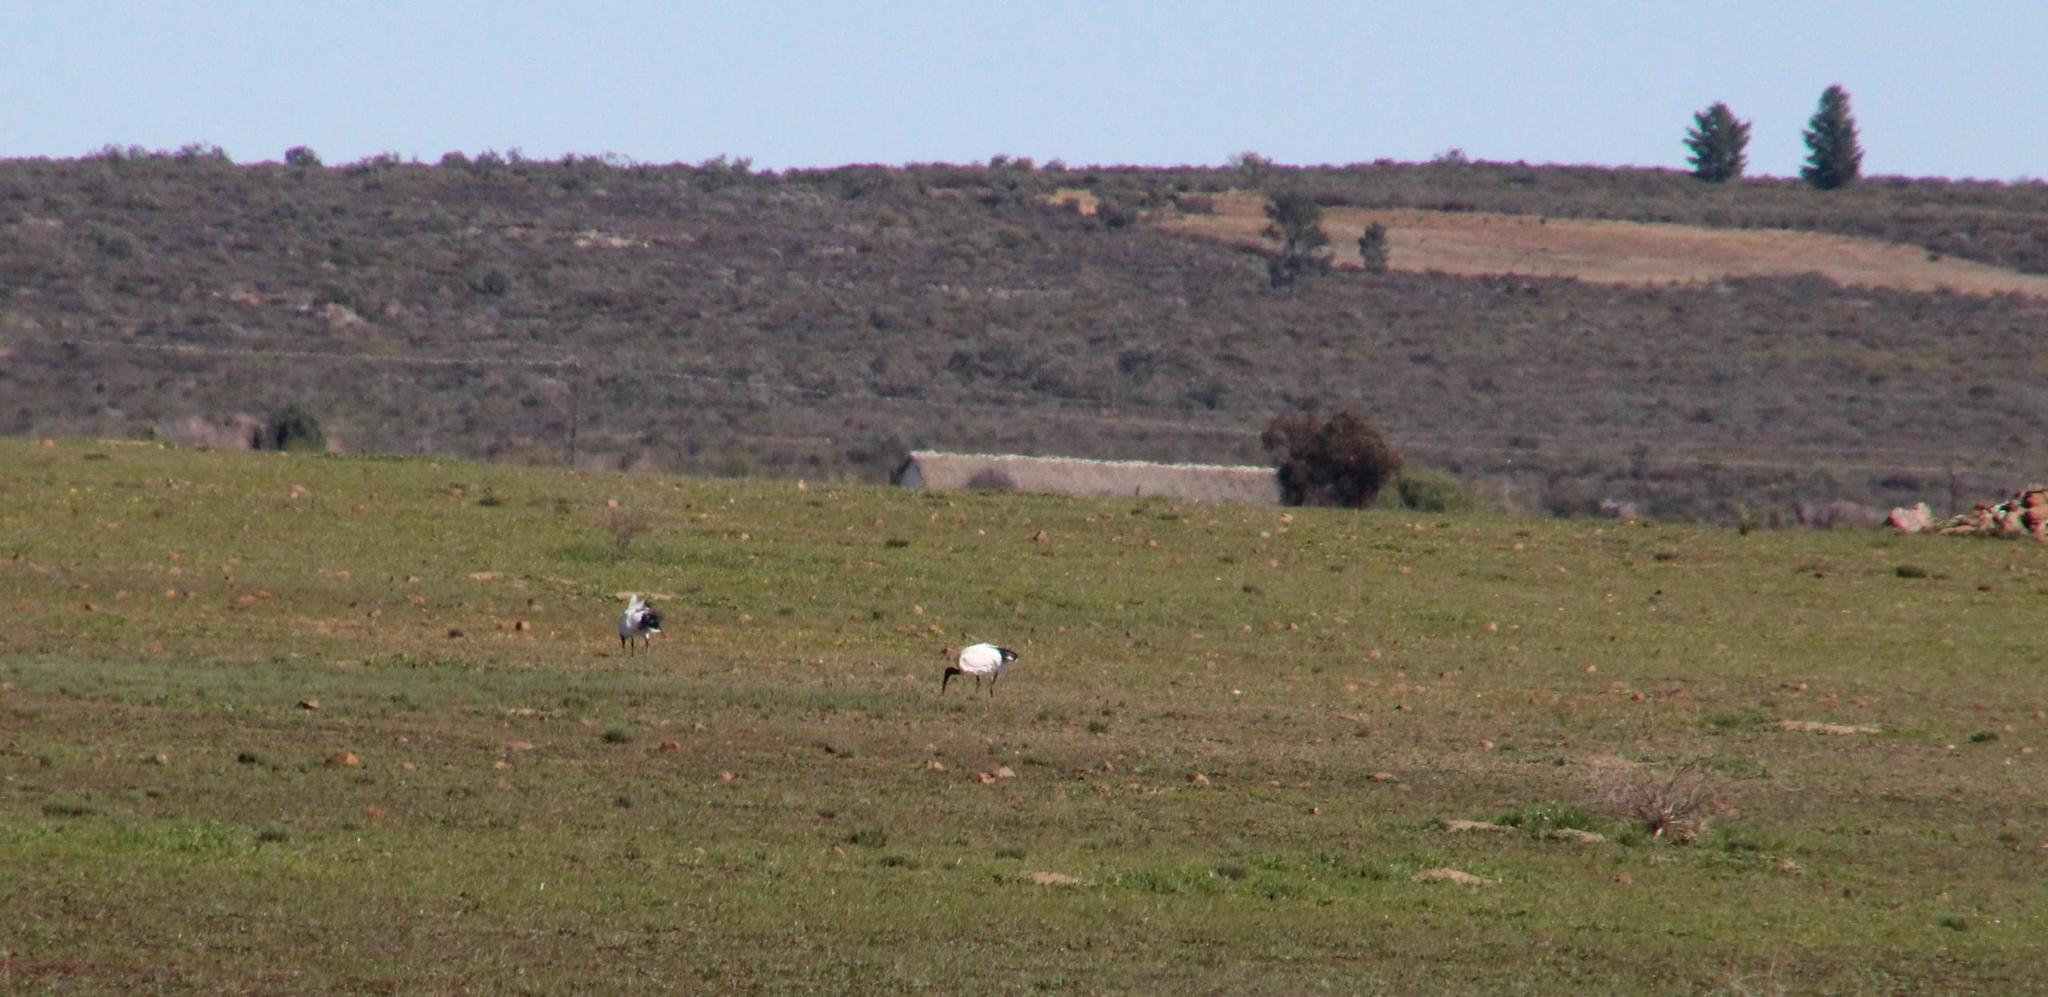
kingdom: Animalia
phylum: Chordata
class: Aves
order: Pelecaniformes
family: Threskiornithidae
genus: Threskiornis
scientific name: Threskiornis aethiopicus
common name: Sacred ibis
